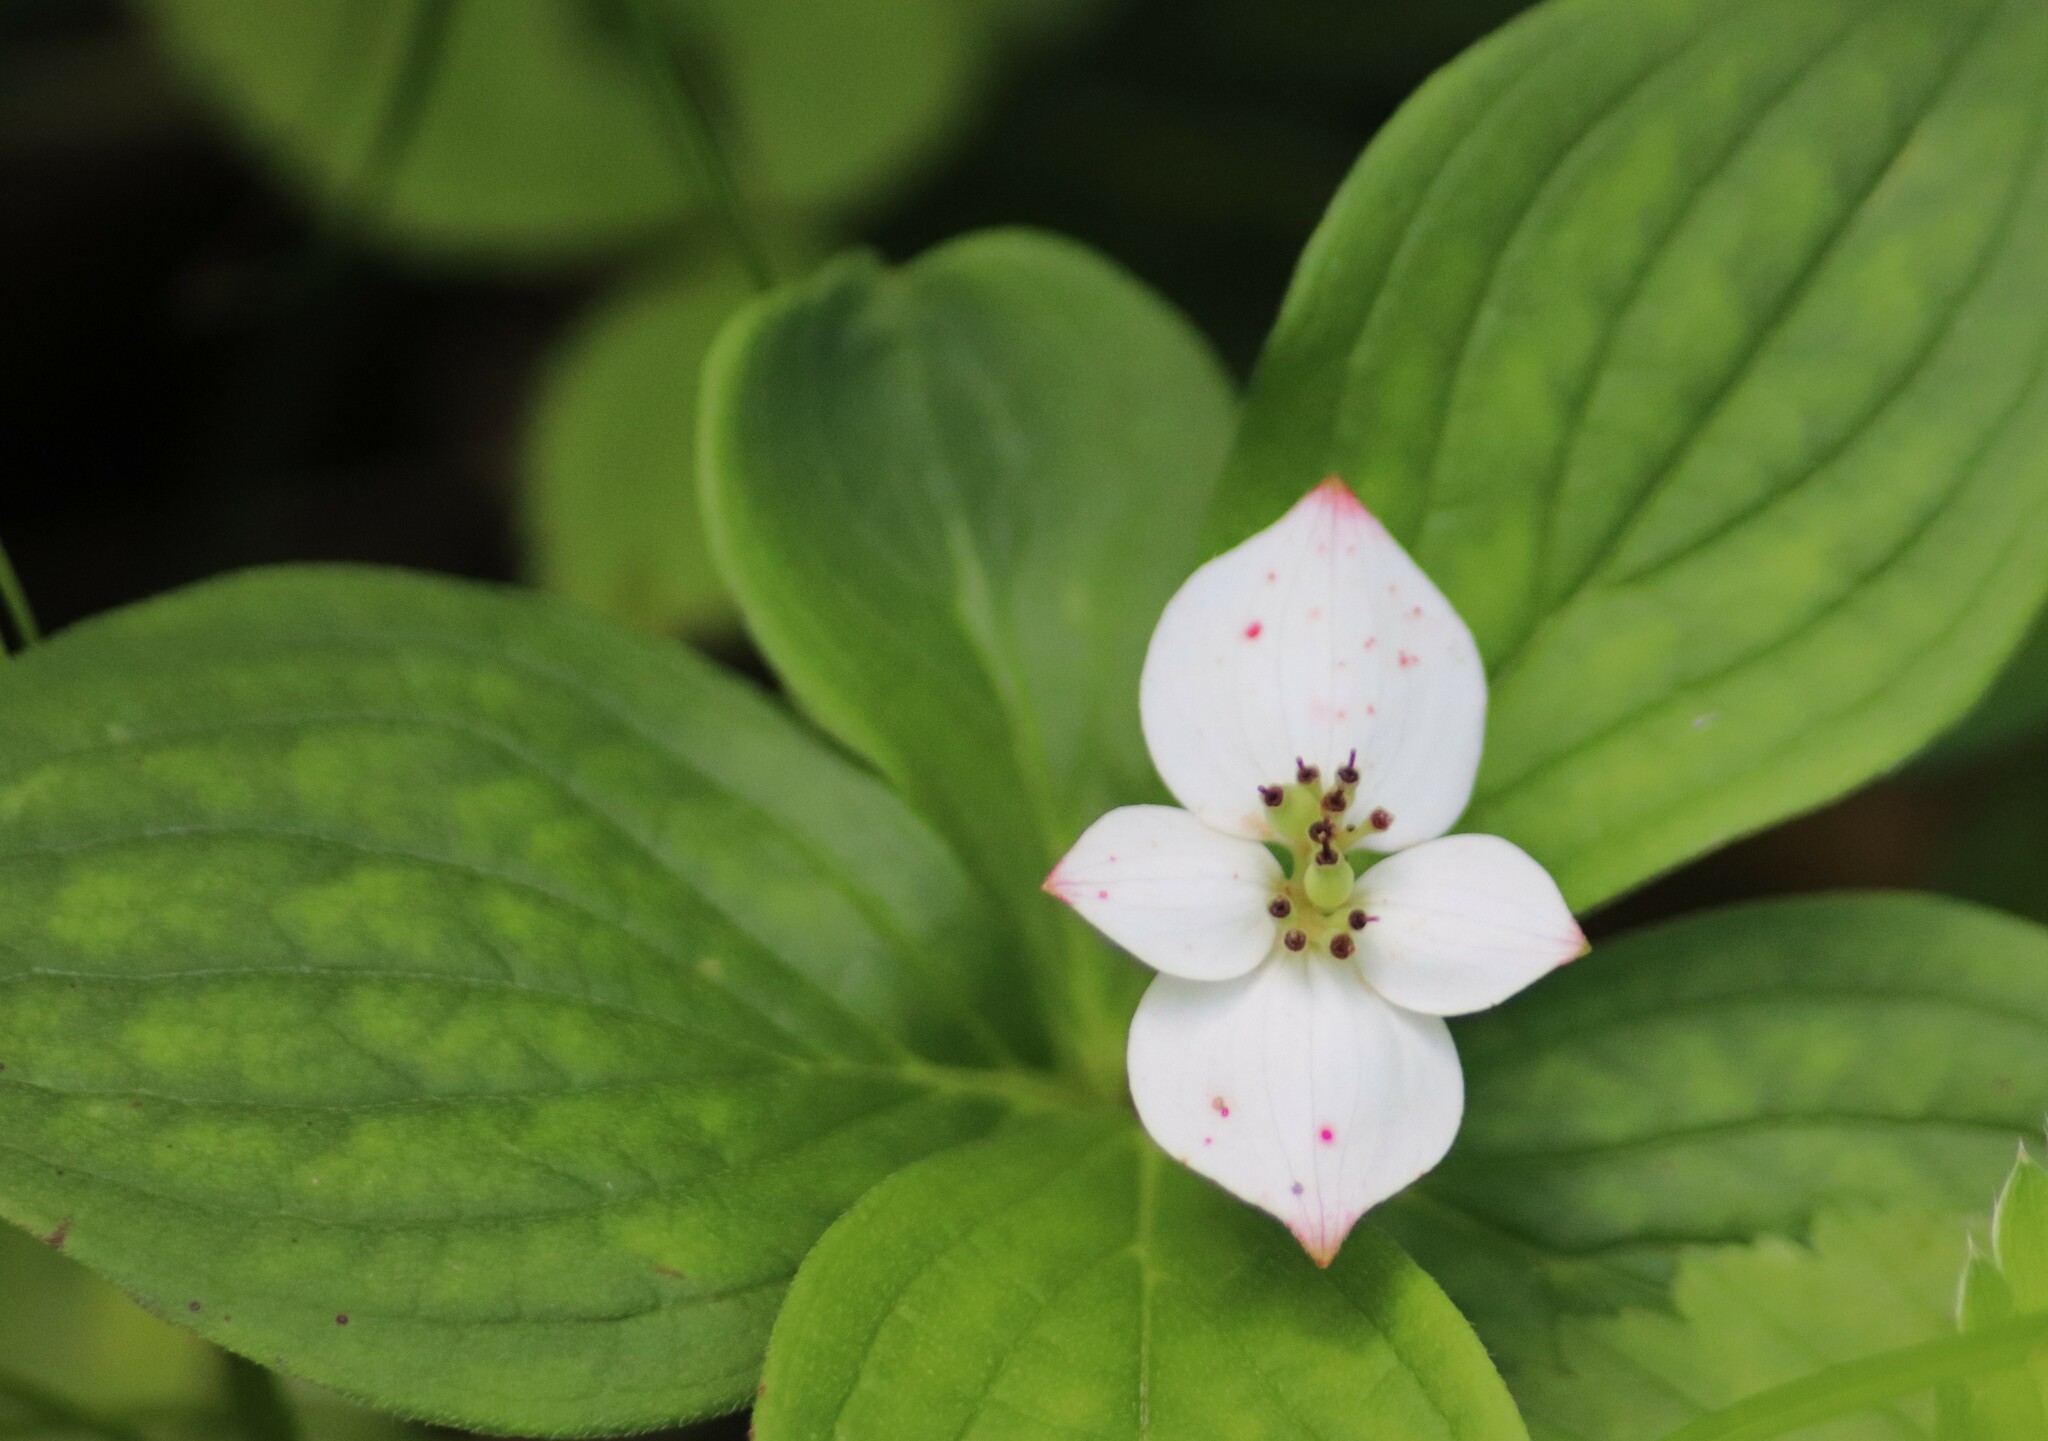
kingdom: Plantae
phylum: Tracheophyta
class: Magnoliopsida
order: Cornales
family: Cornaceae
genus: Cornus
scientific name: Cornus canadensis
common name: Creeping dogwood
